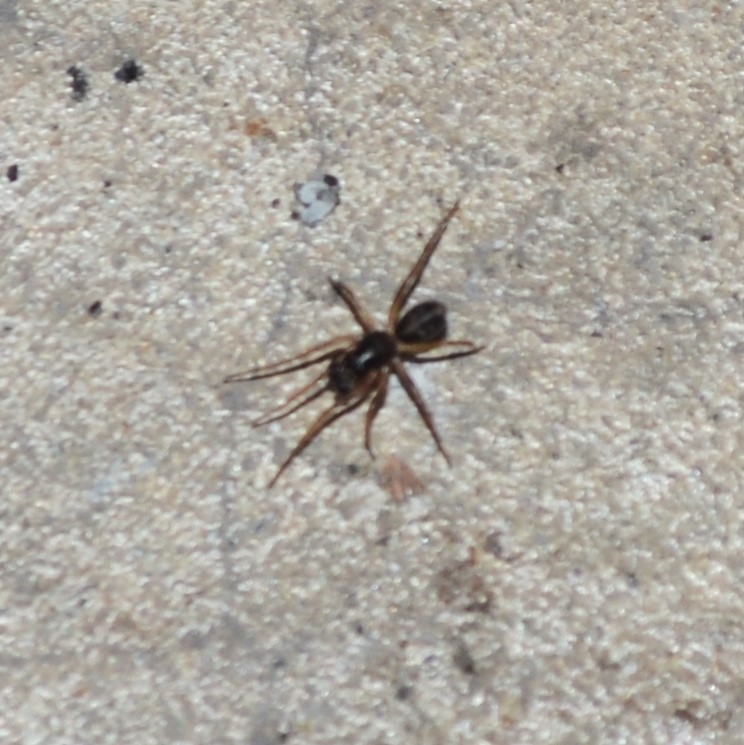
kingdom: Animalia
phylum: Arthropoda
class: Arachnida
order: Araneae
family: Corinnidae
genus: Falconina
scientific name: Falconina gracilis
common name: Antmimic spider
